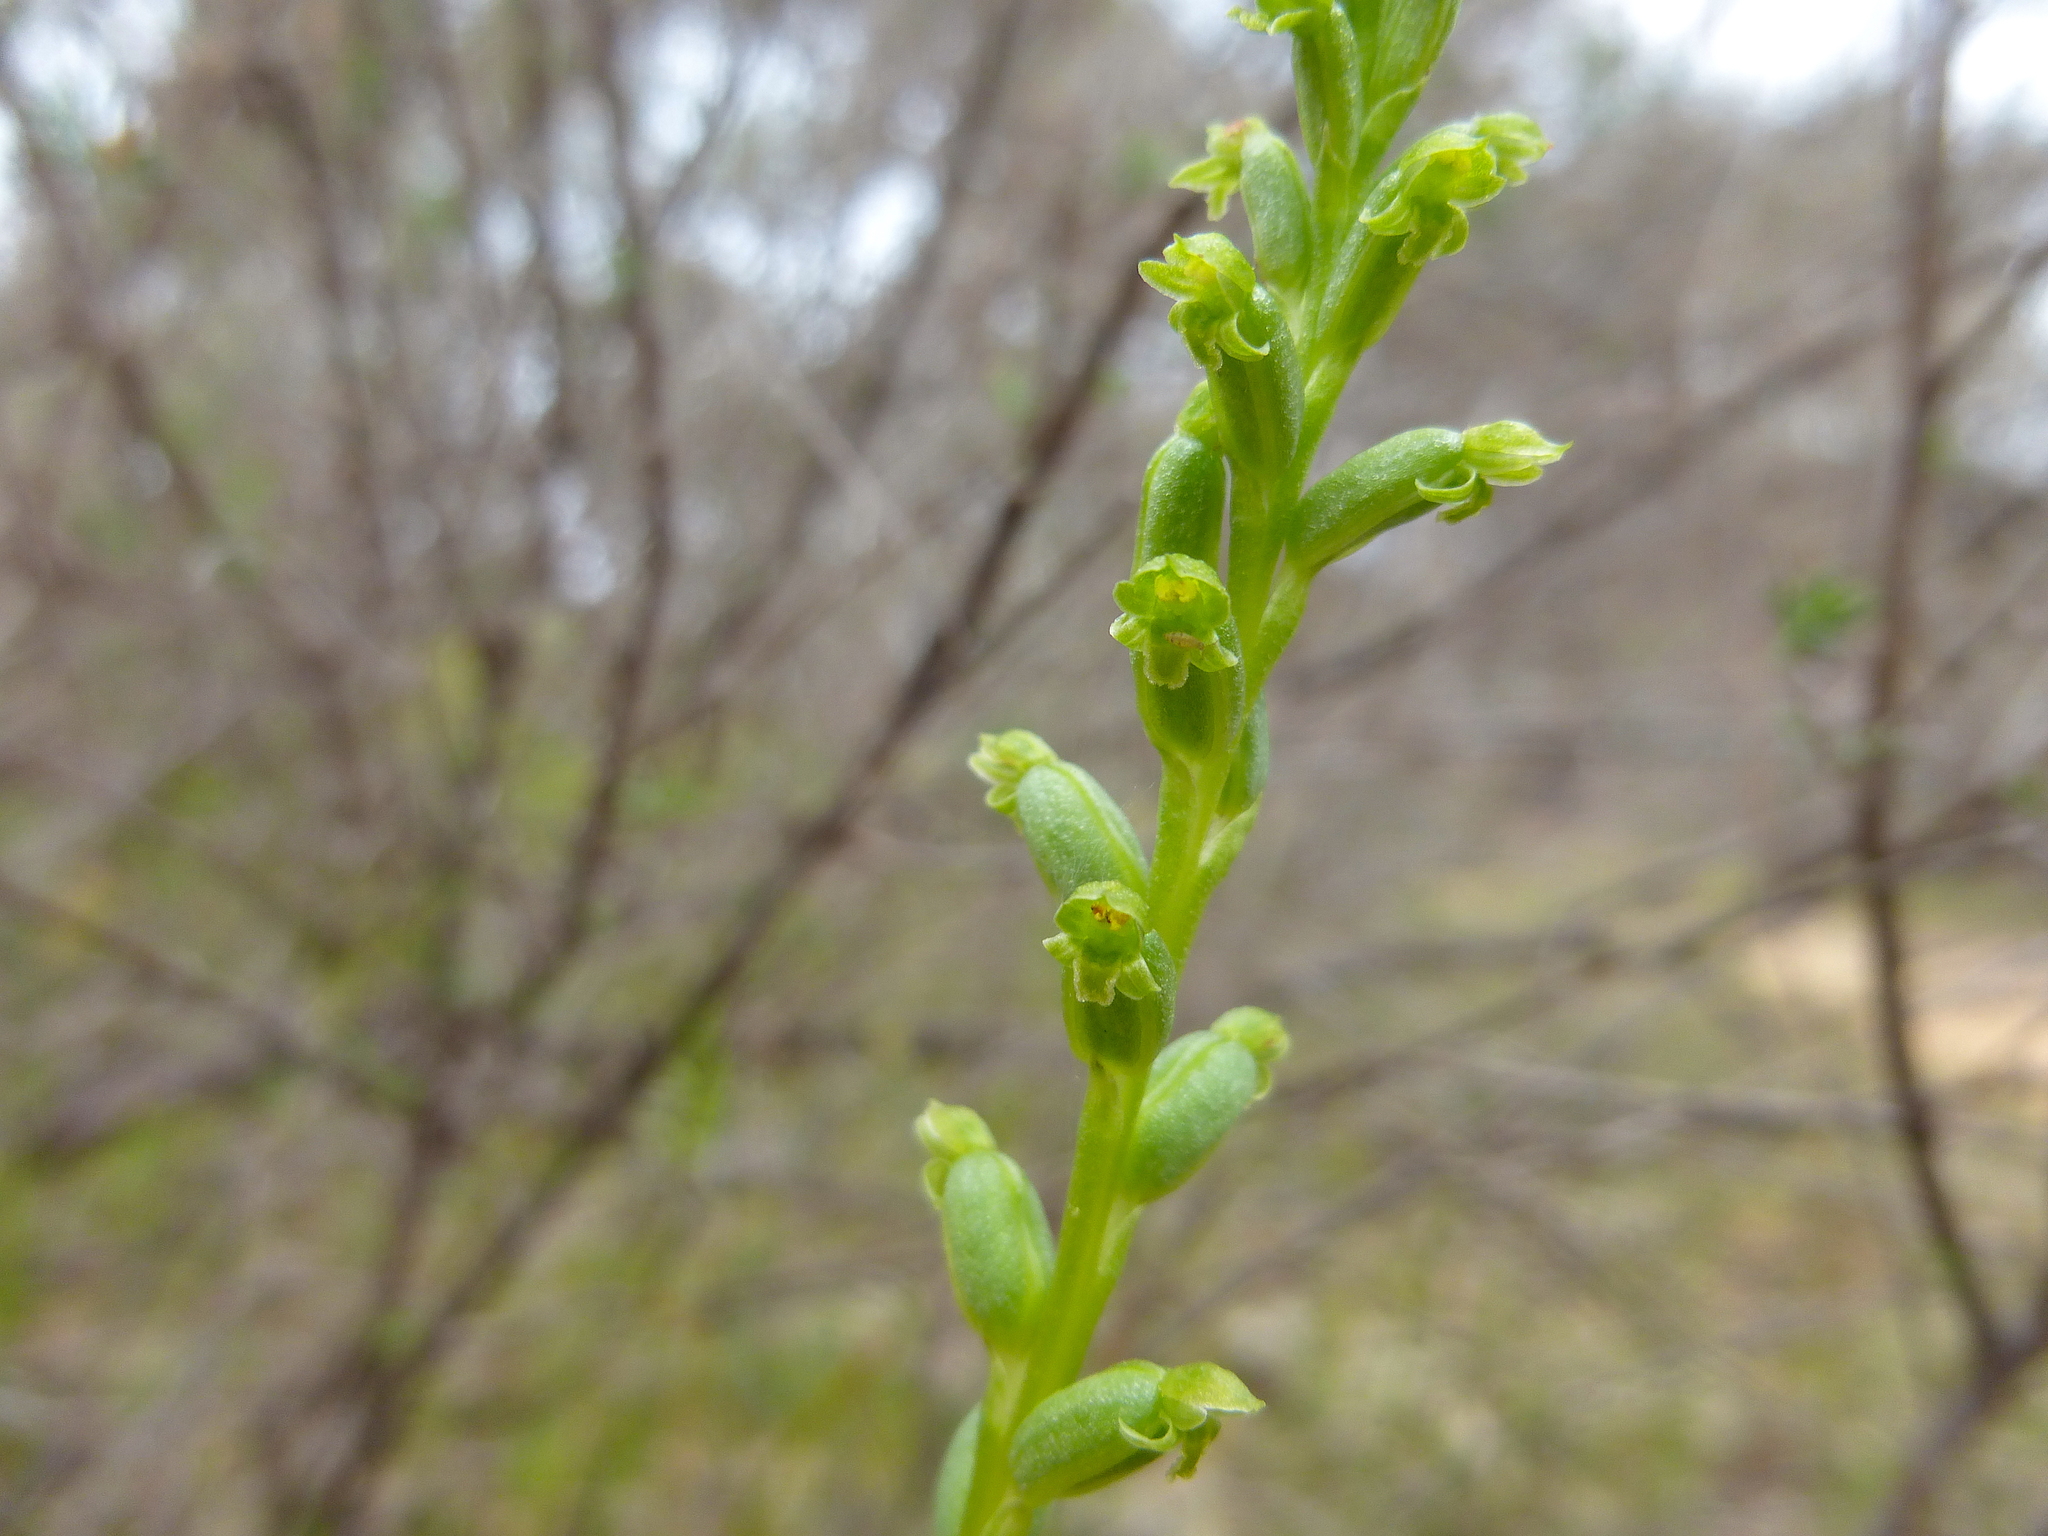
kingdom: Plantae
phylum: Tracheophyta
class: Liliopsida
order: Asparagales
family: Orchidaceae
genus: Microtis
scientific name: Microtis unifolia
